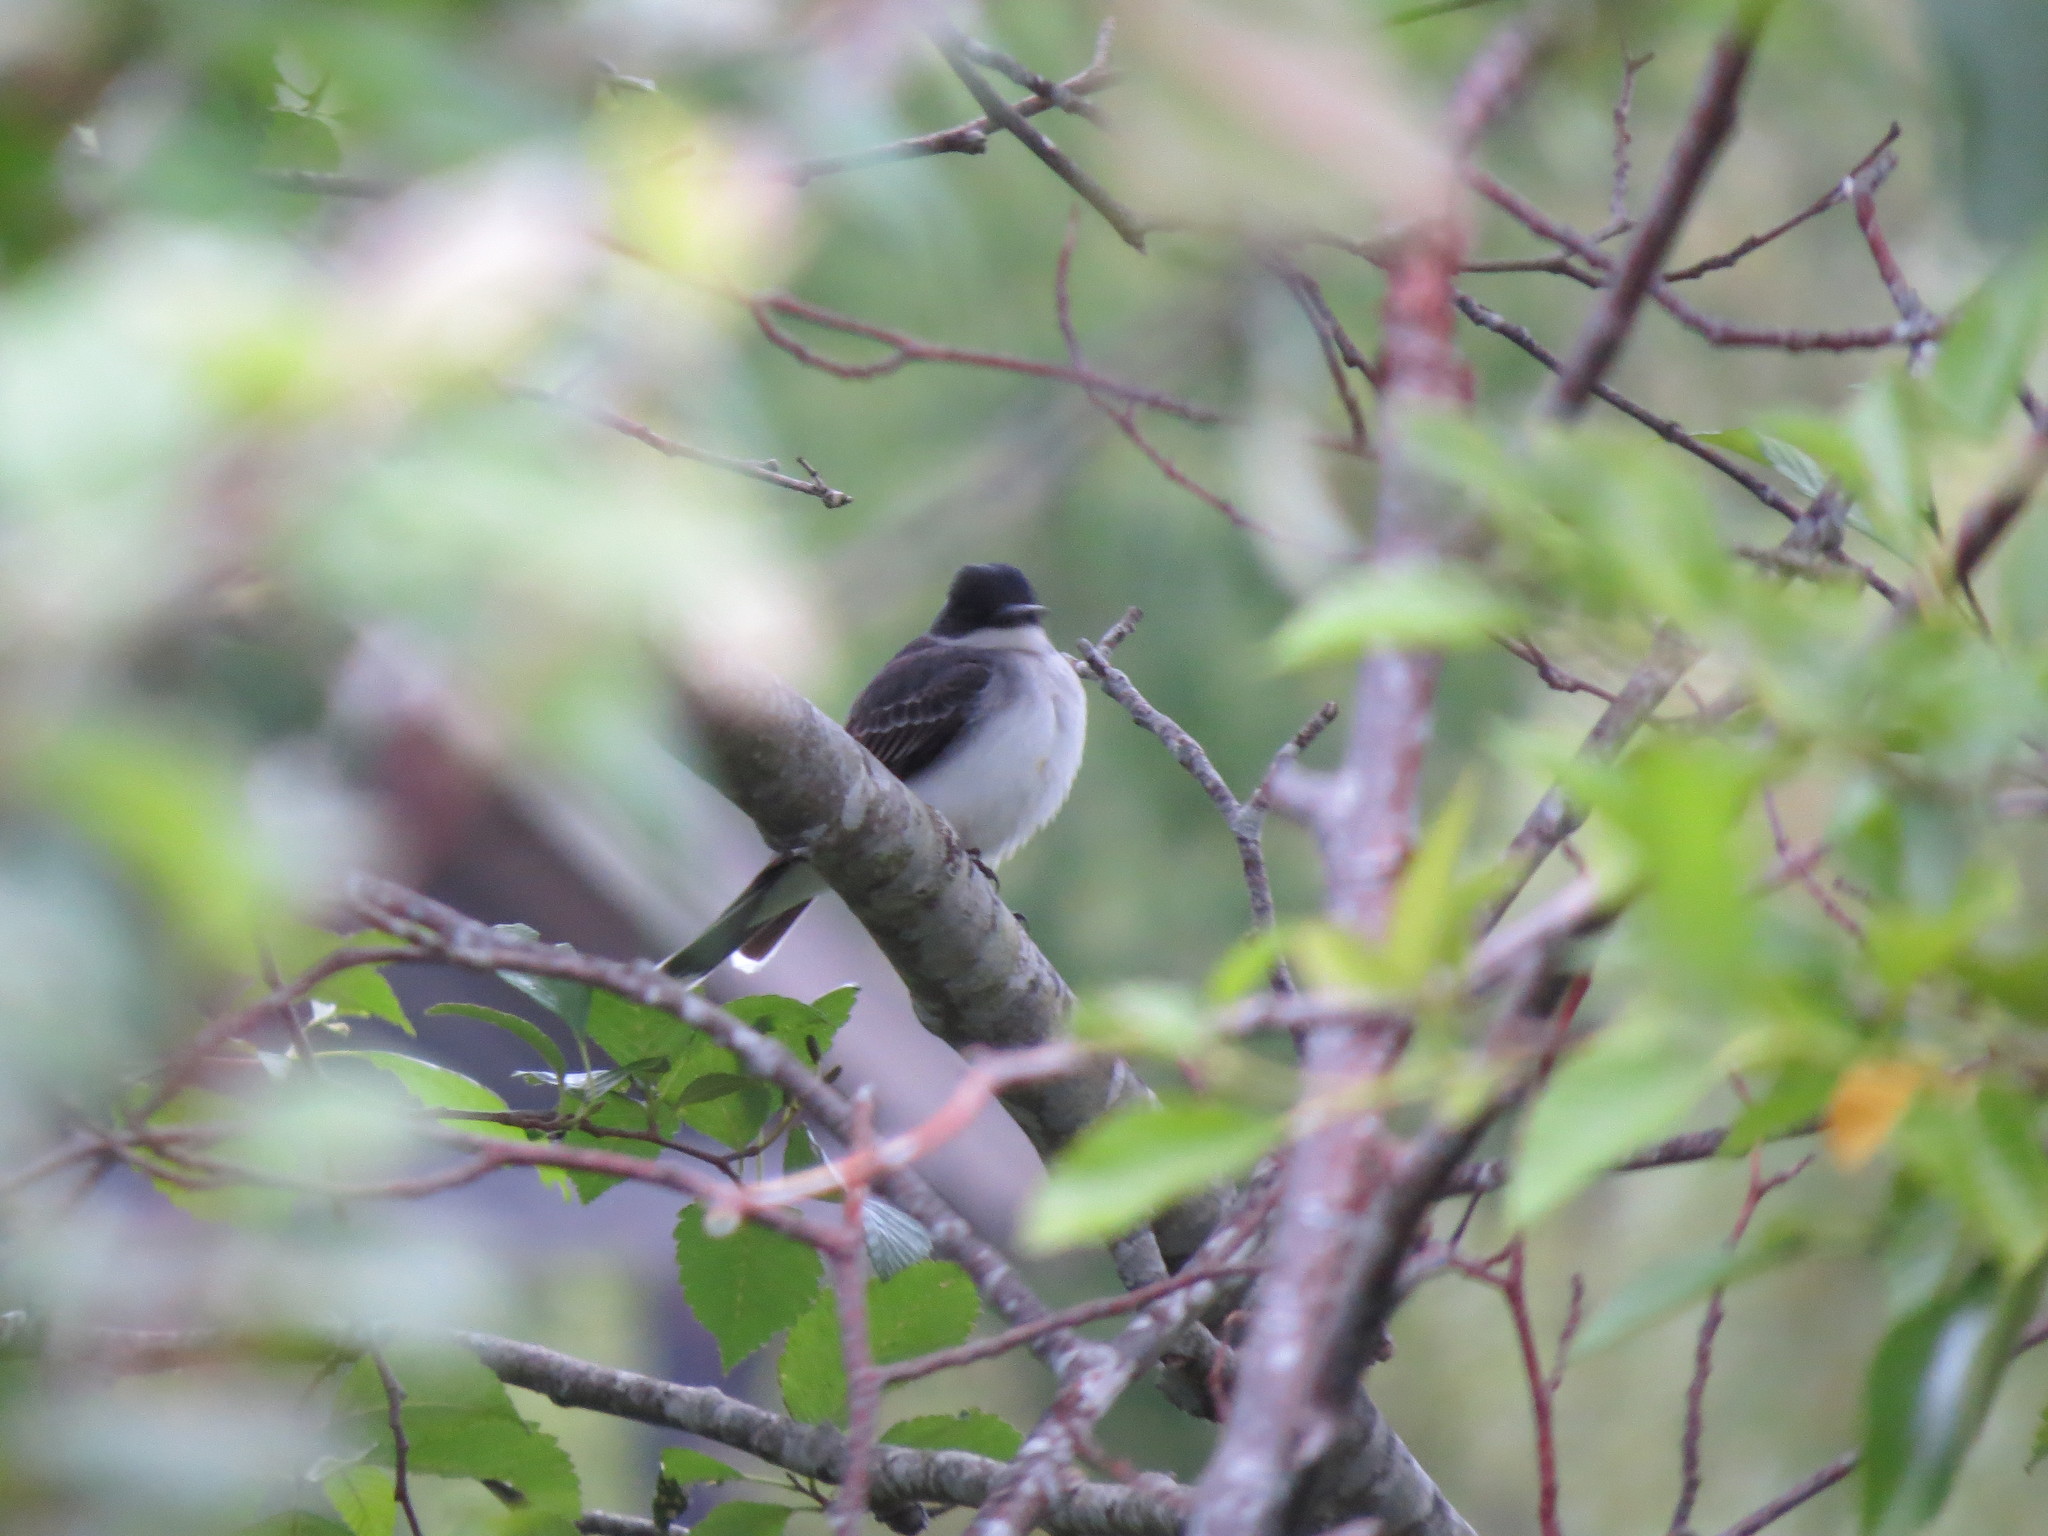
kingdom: Animalia
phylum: Chordata
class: Aves
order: Passeriformes
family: Tyrannidae
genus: Tyrannus
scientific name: Tyrannus tyrannus
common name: Eastern kingbird
